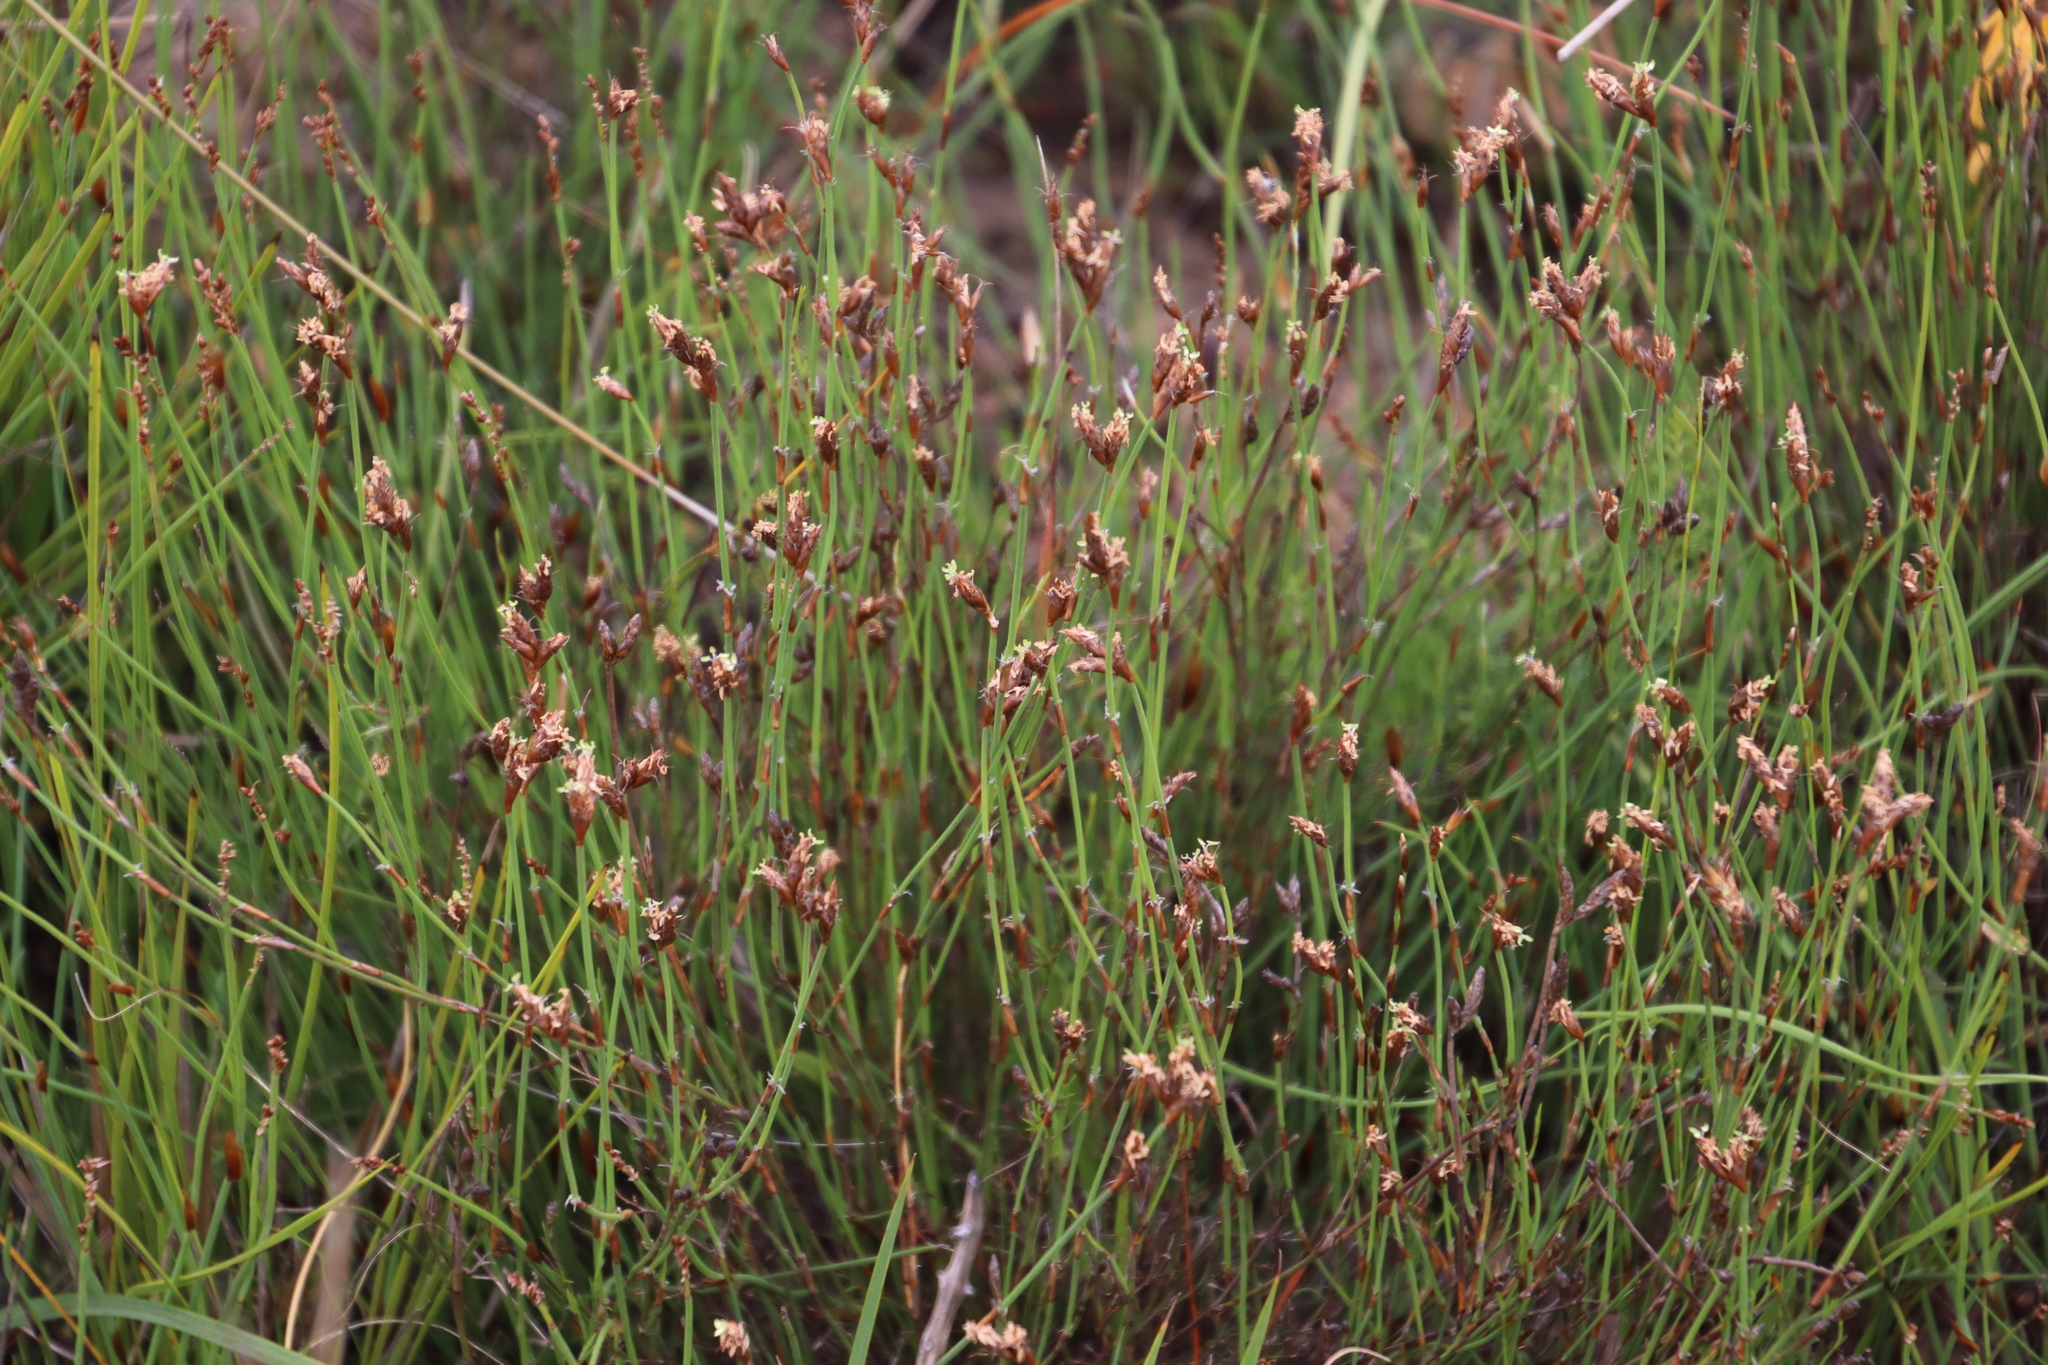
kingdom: Plantae
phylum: Tracheophyta
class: Liliopsida
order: Poales
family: Restionaceae
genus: Restio
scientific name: Restio capensis
